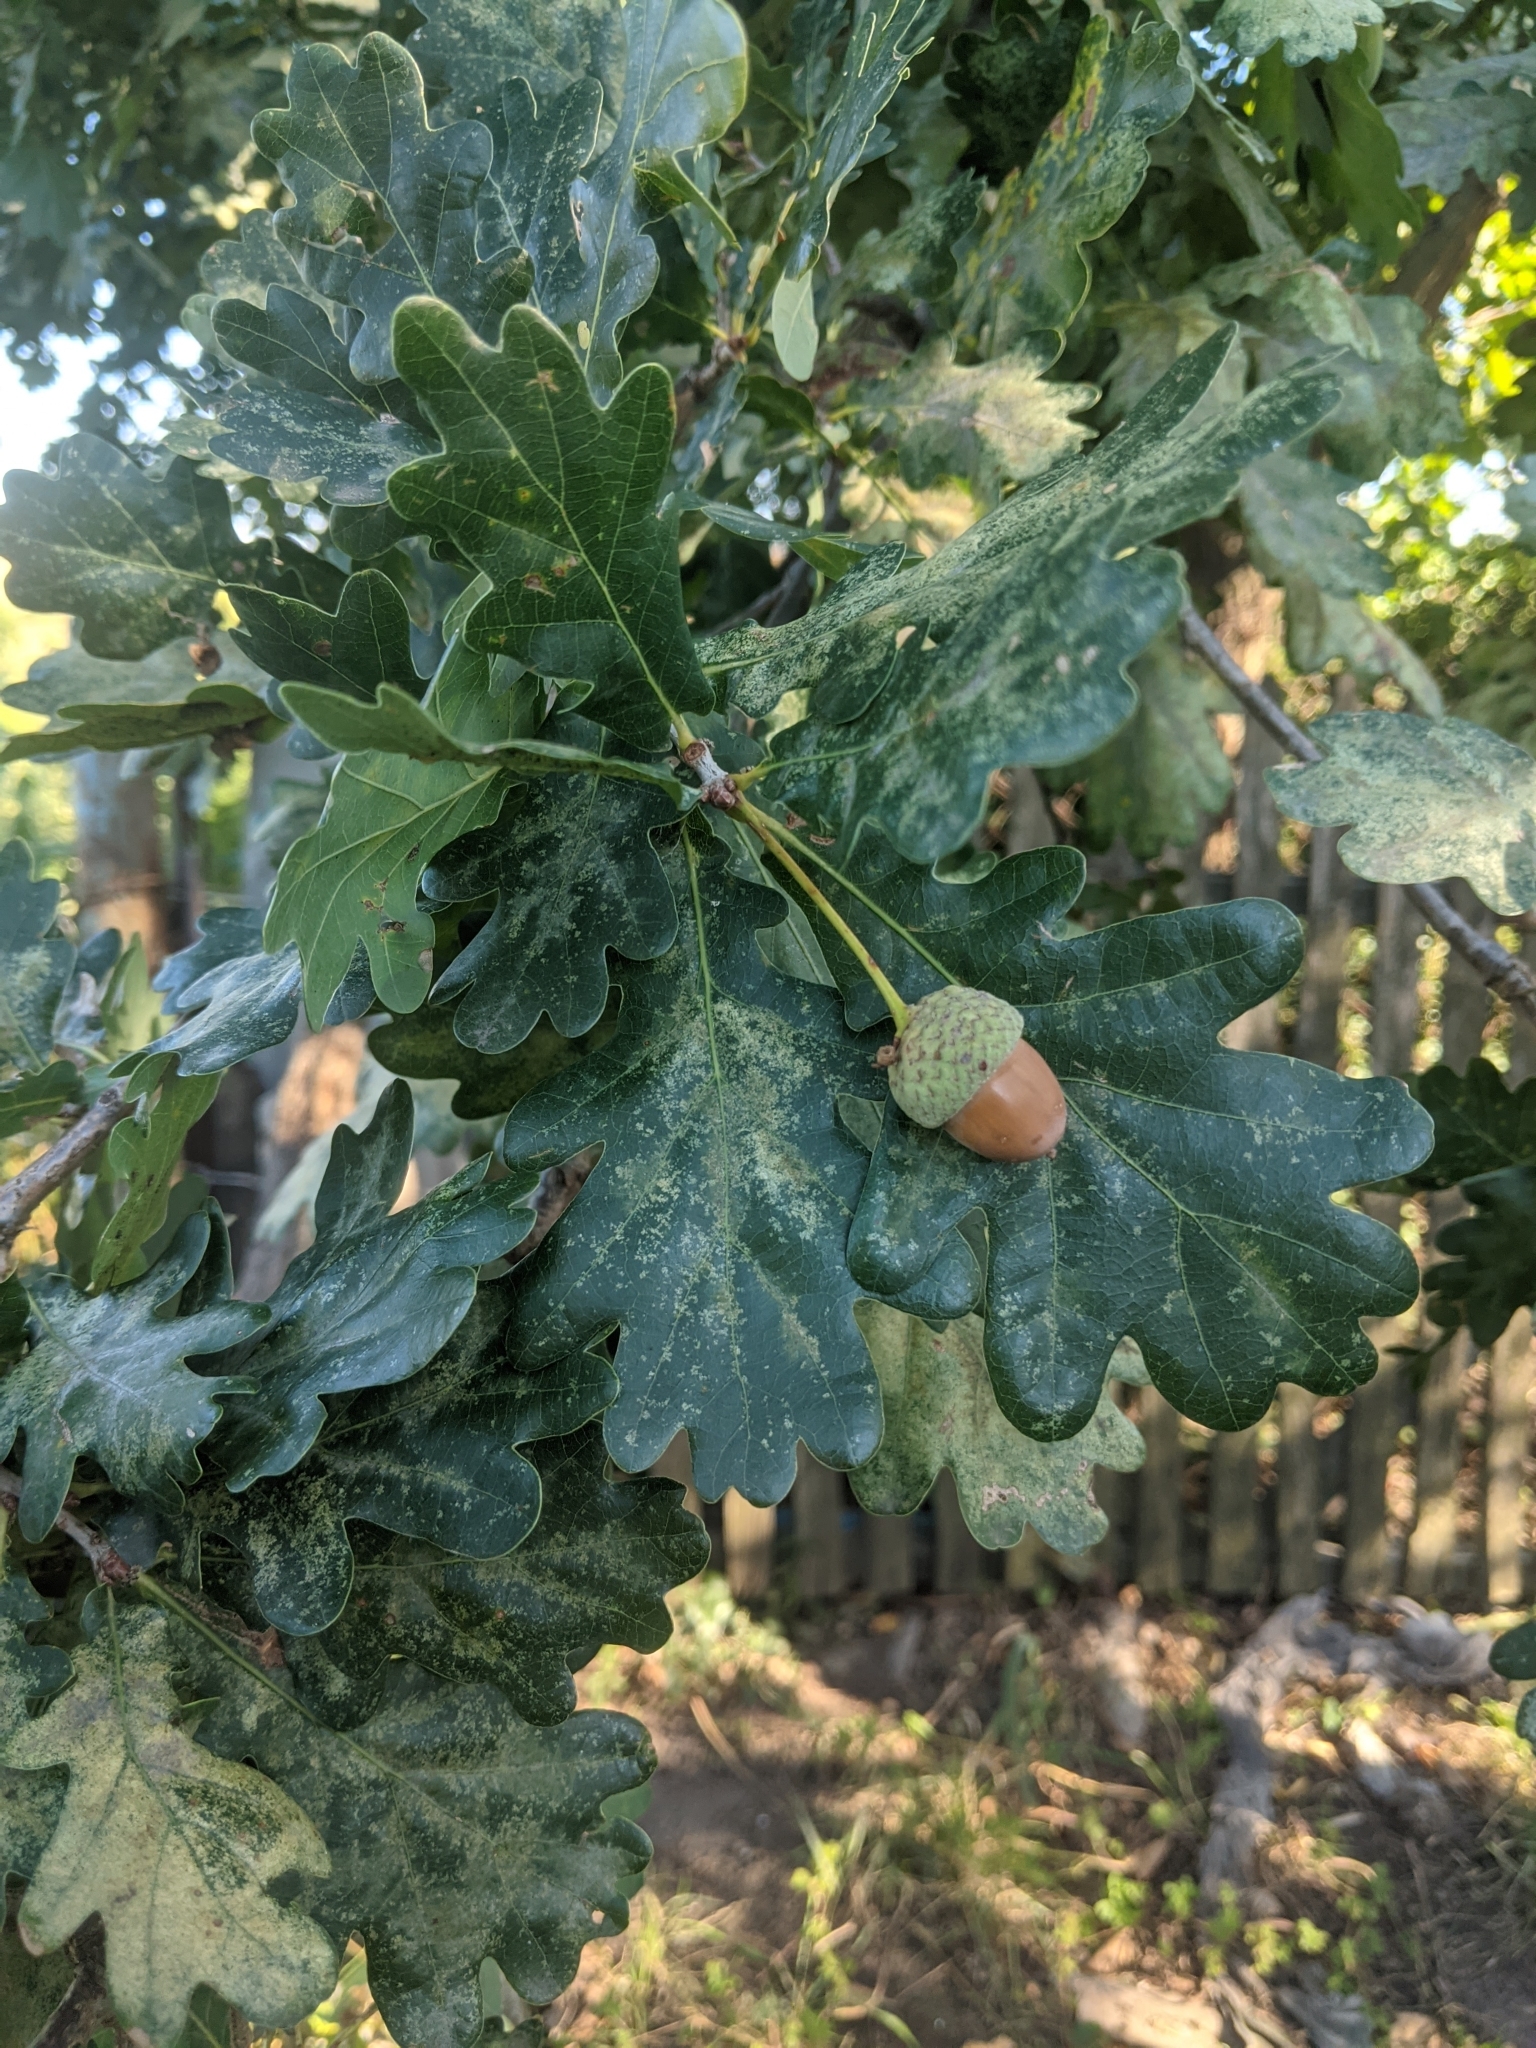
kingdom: Plantae
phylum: Tracheophyta
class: Magnoliopsida
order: Fagales
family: Fagaceae
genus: Quercus
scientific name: Quercus robur
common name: Pedunculate oak
